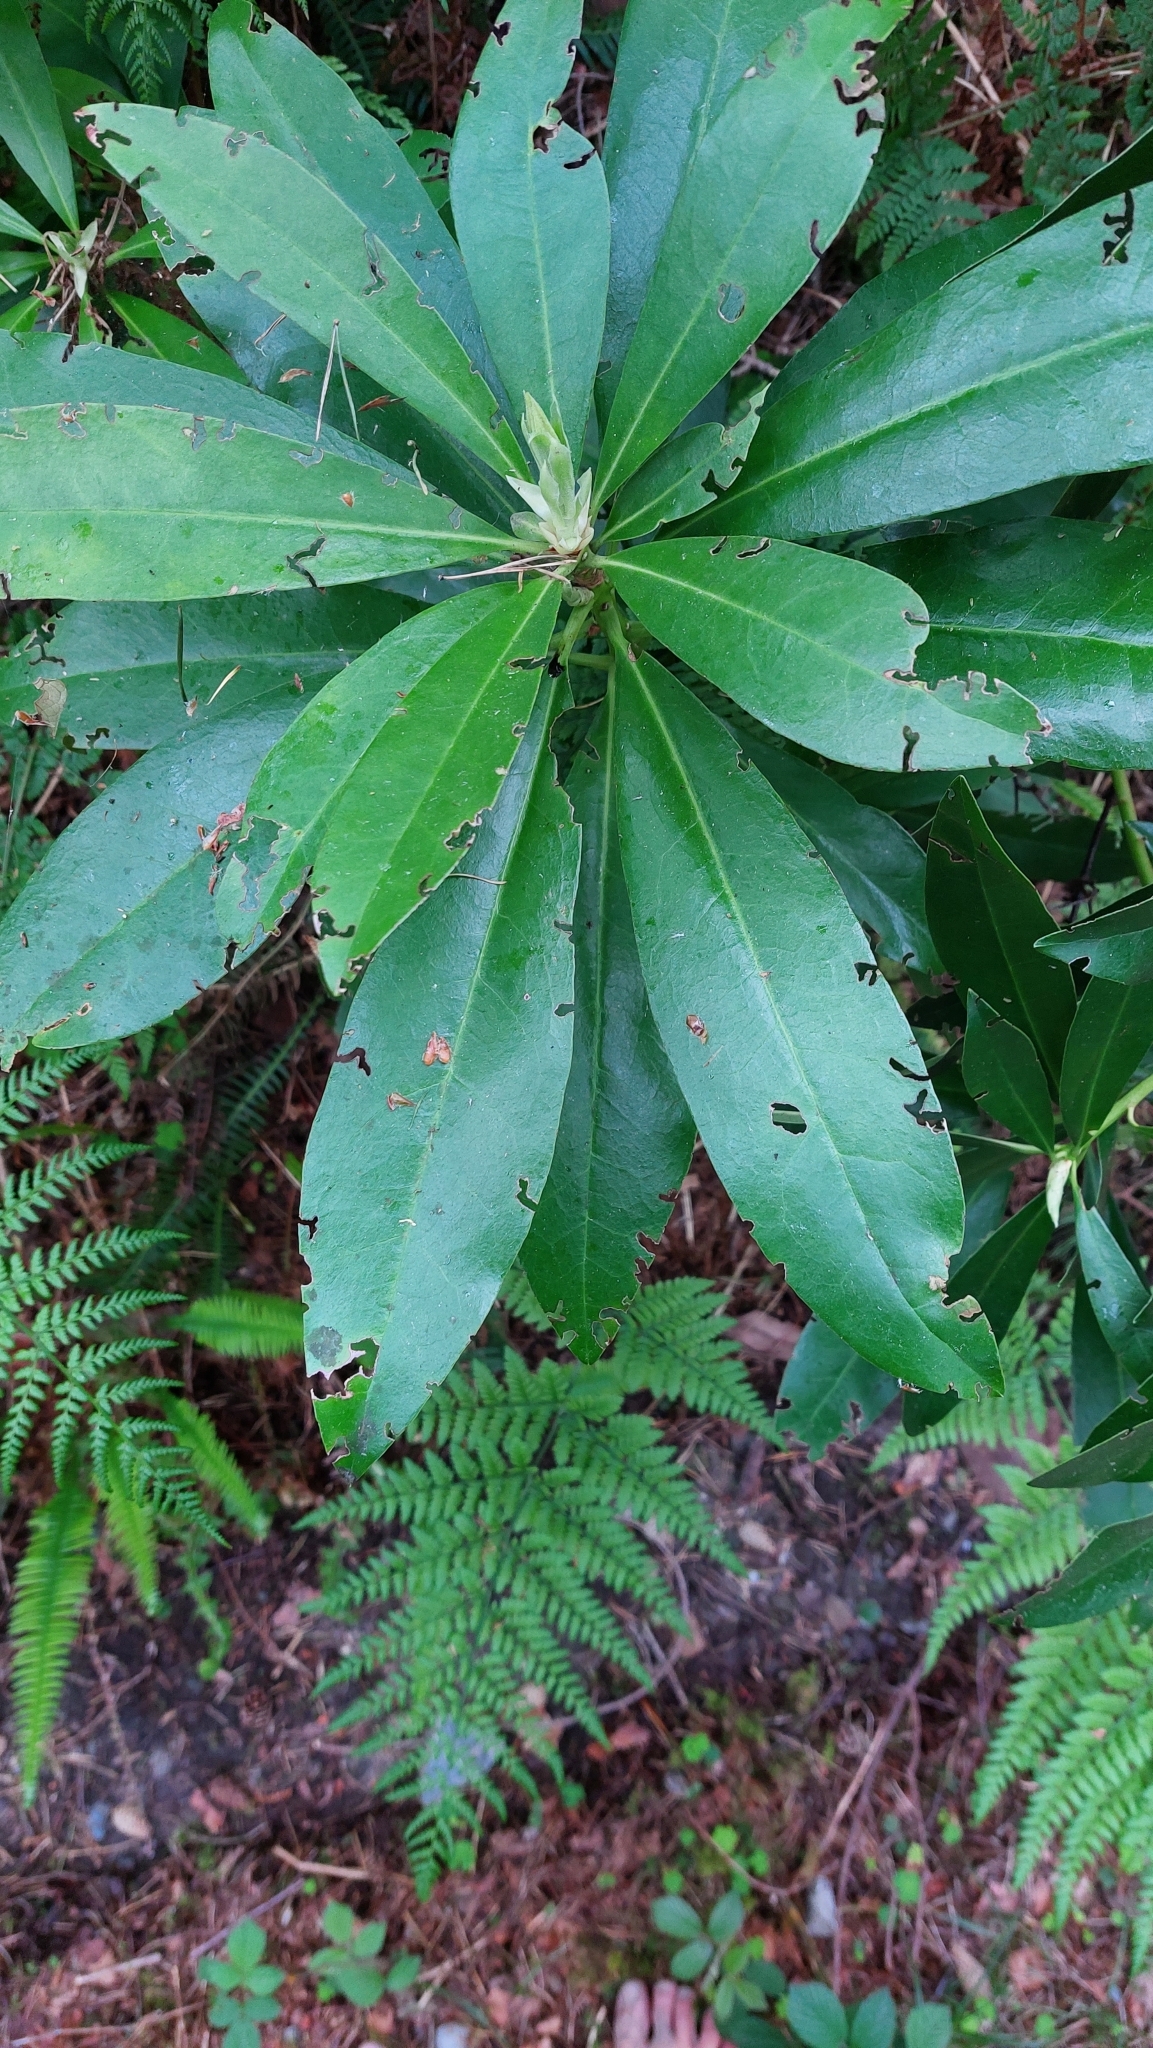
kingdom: Plantae
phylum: Tracheophyta
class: Magnoliopsida
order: Ericales
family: Ericaceae
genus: Rhododendron
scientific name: Rhododendron ponticum
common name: Rhododendron
